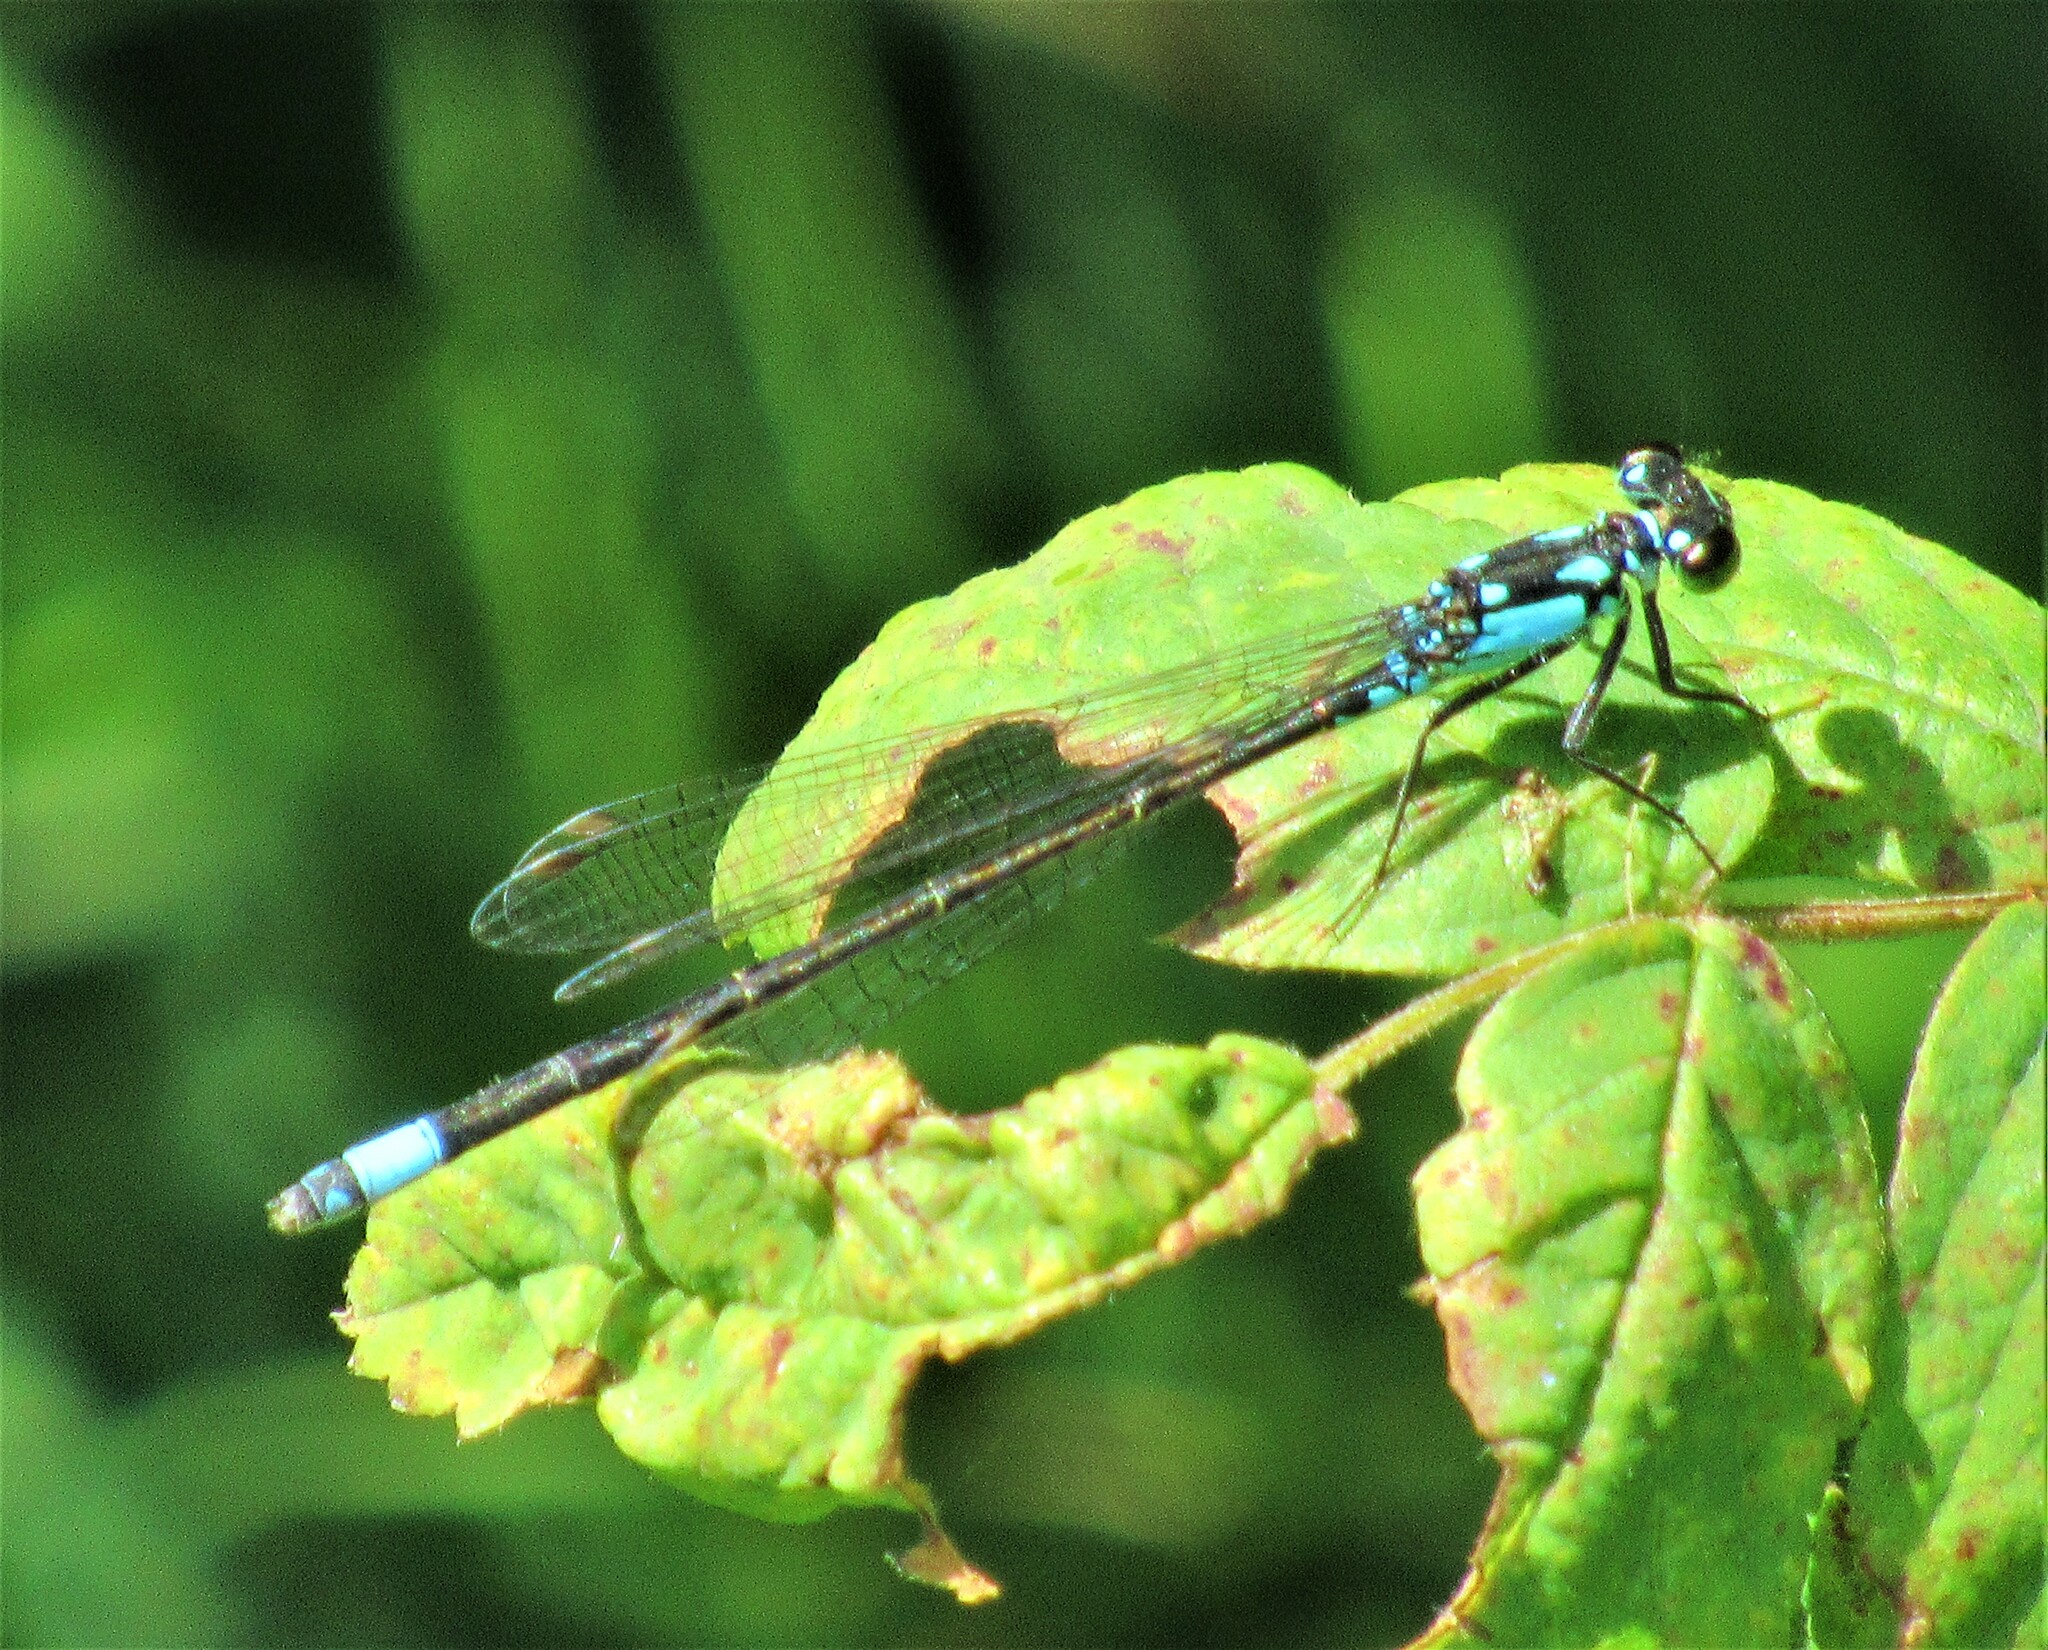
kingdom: Animalia
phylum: Arthropoda
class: Insecta
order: Odonata
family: Coenagrionidae
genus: Ischnura
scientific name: Ischnura cervula
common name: Pacific forktail
